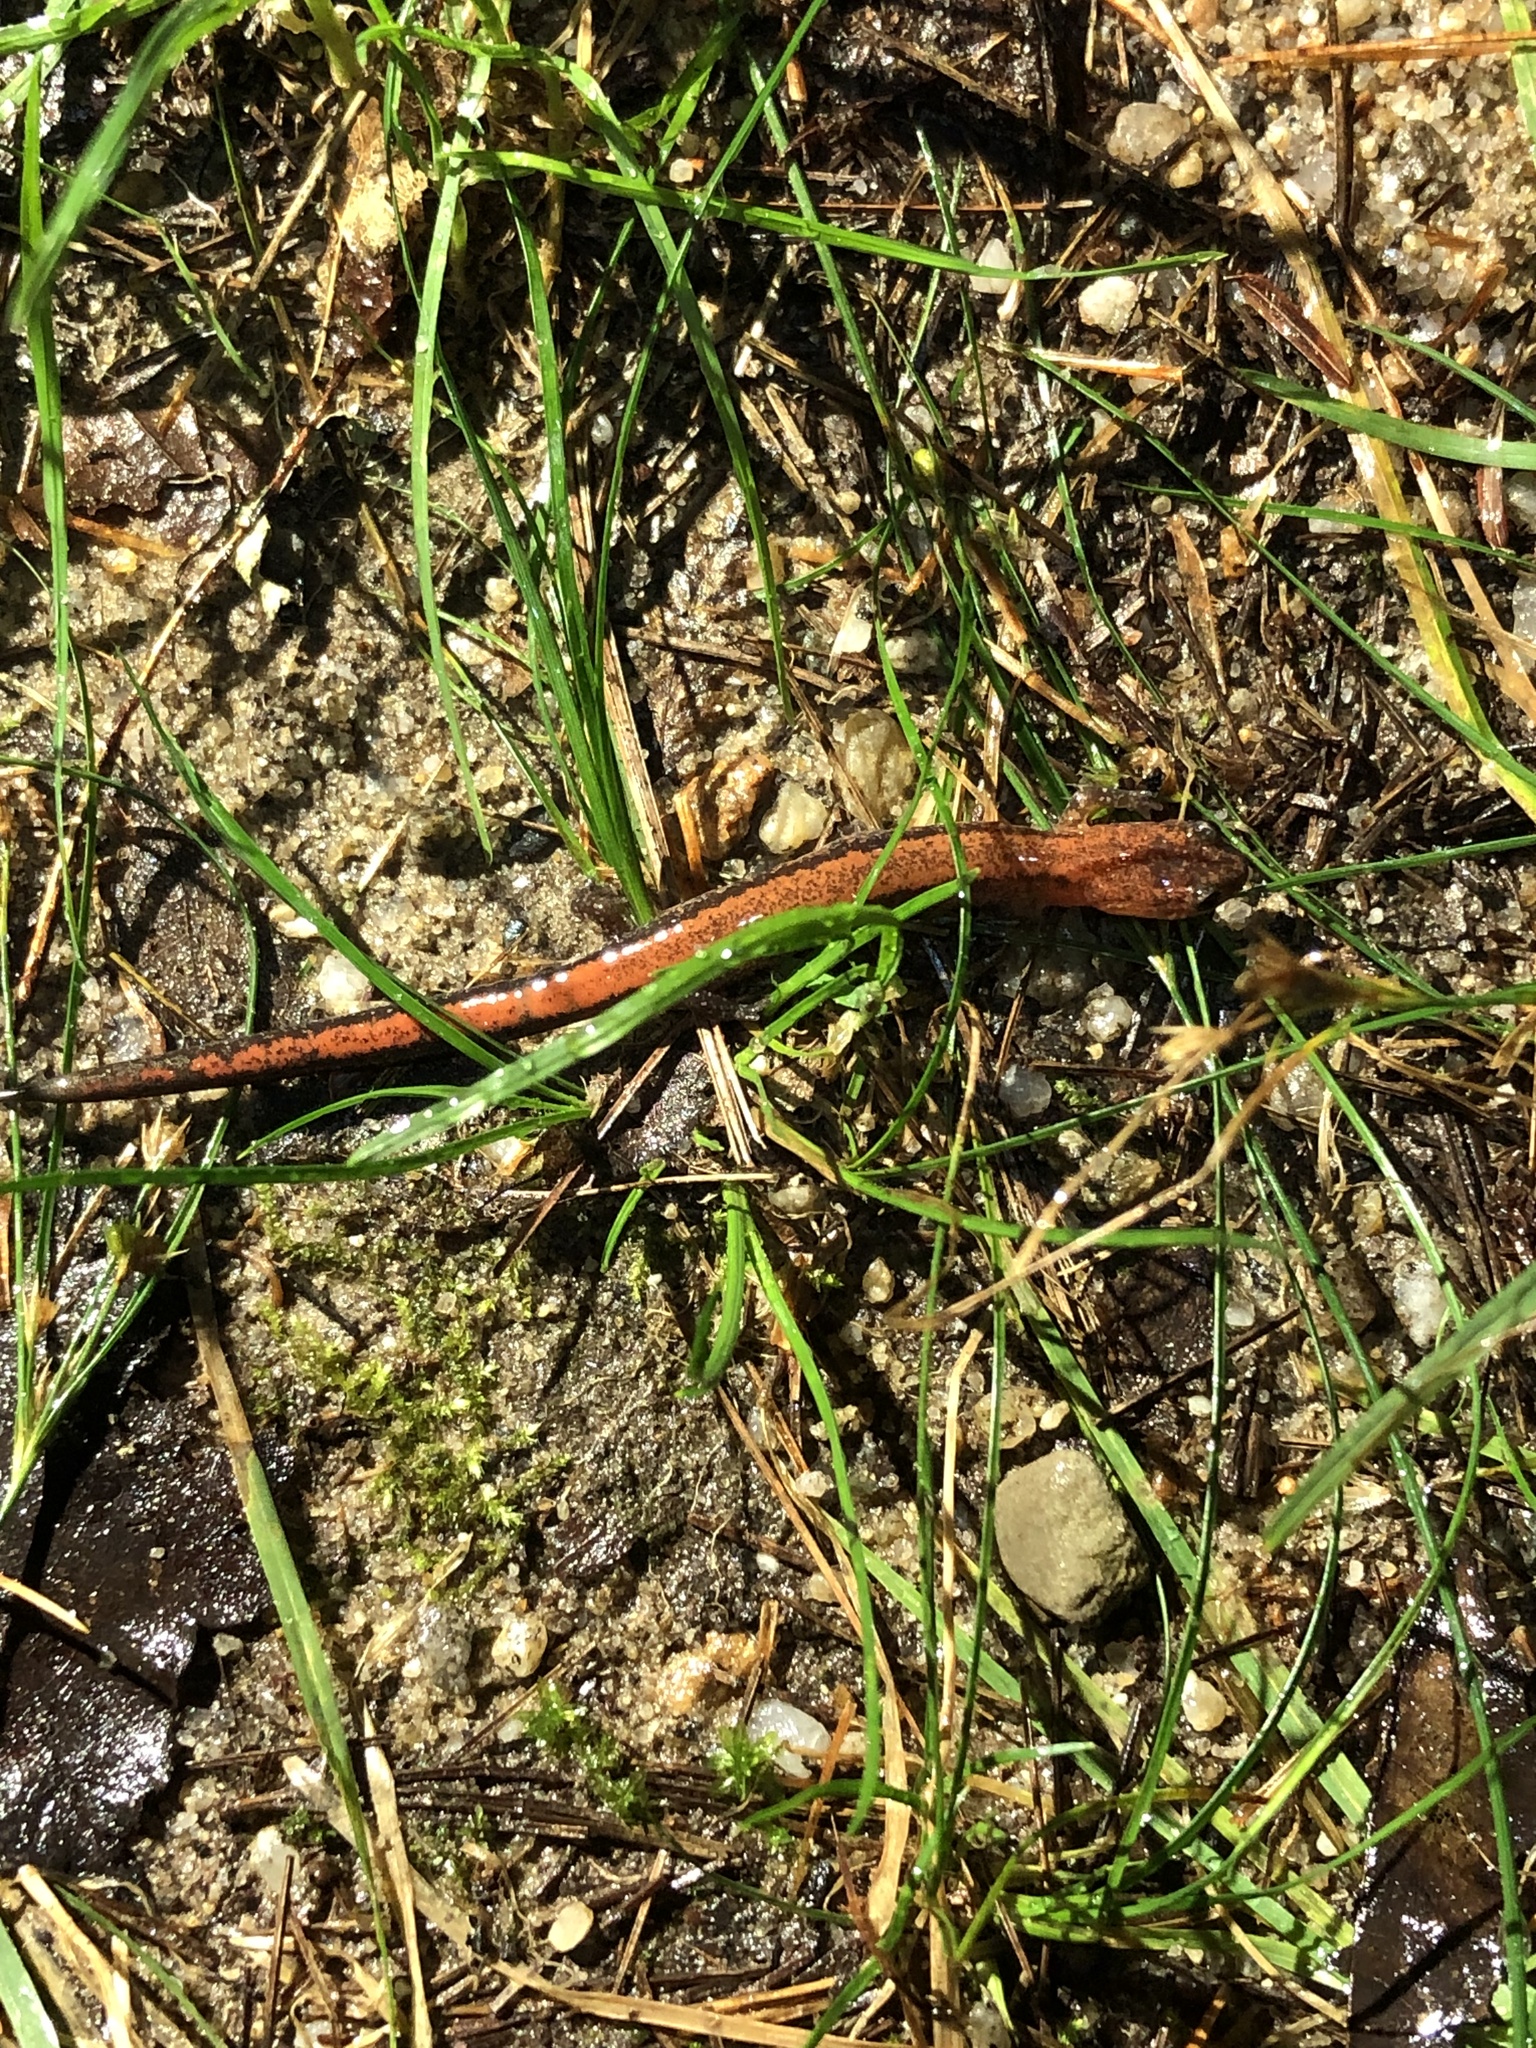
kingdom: Animalia
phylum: Chordata
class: Amphibia
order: Caudata
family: Plethodontidae
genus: Plethodon
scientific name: Plethodon cinereus
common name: Redback salamander
